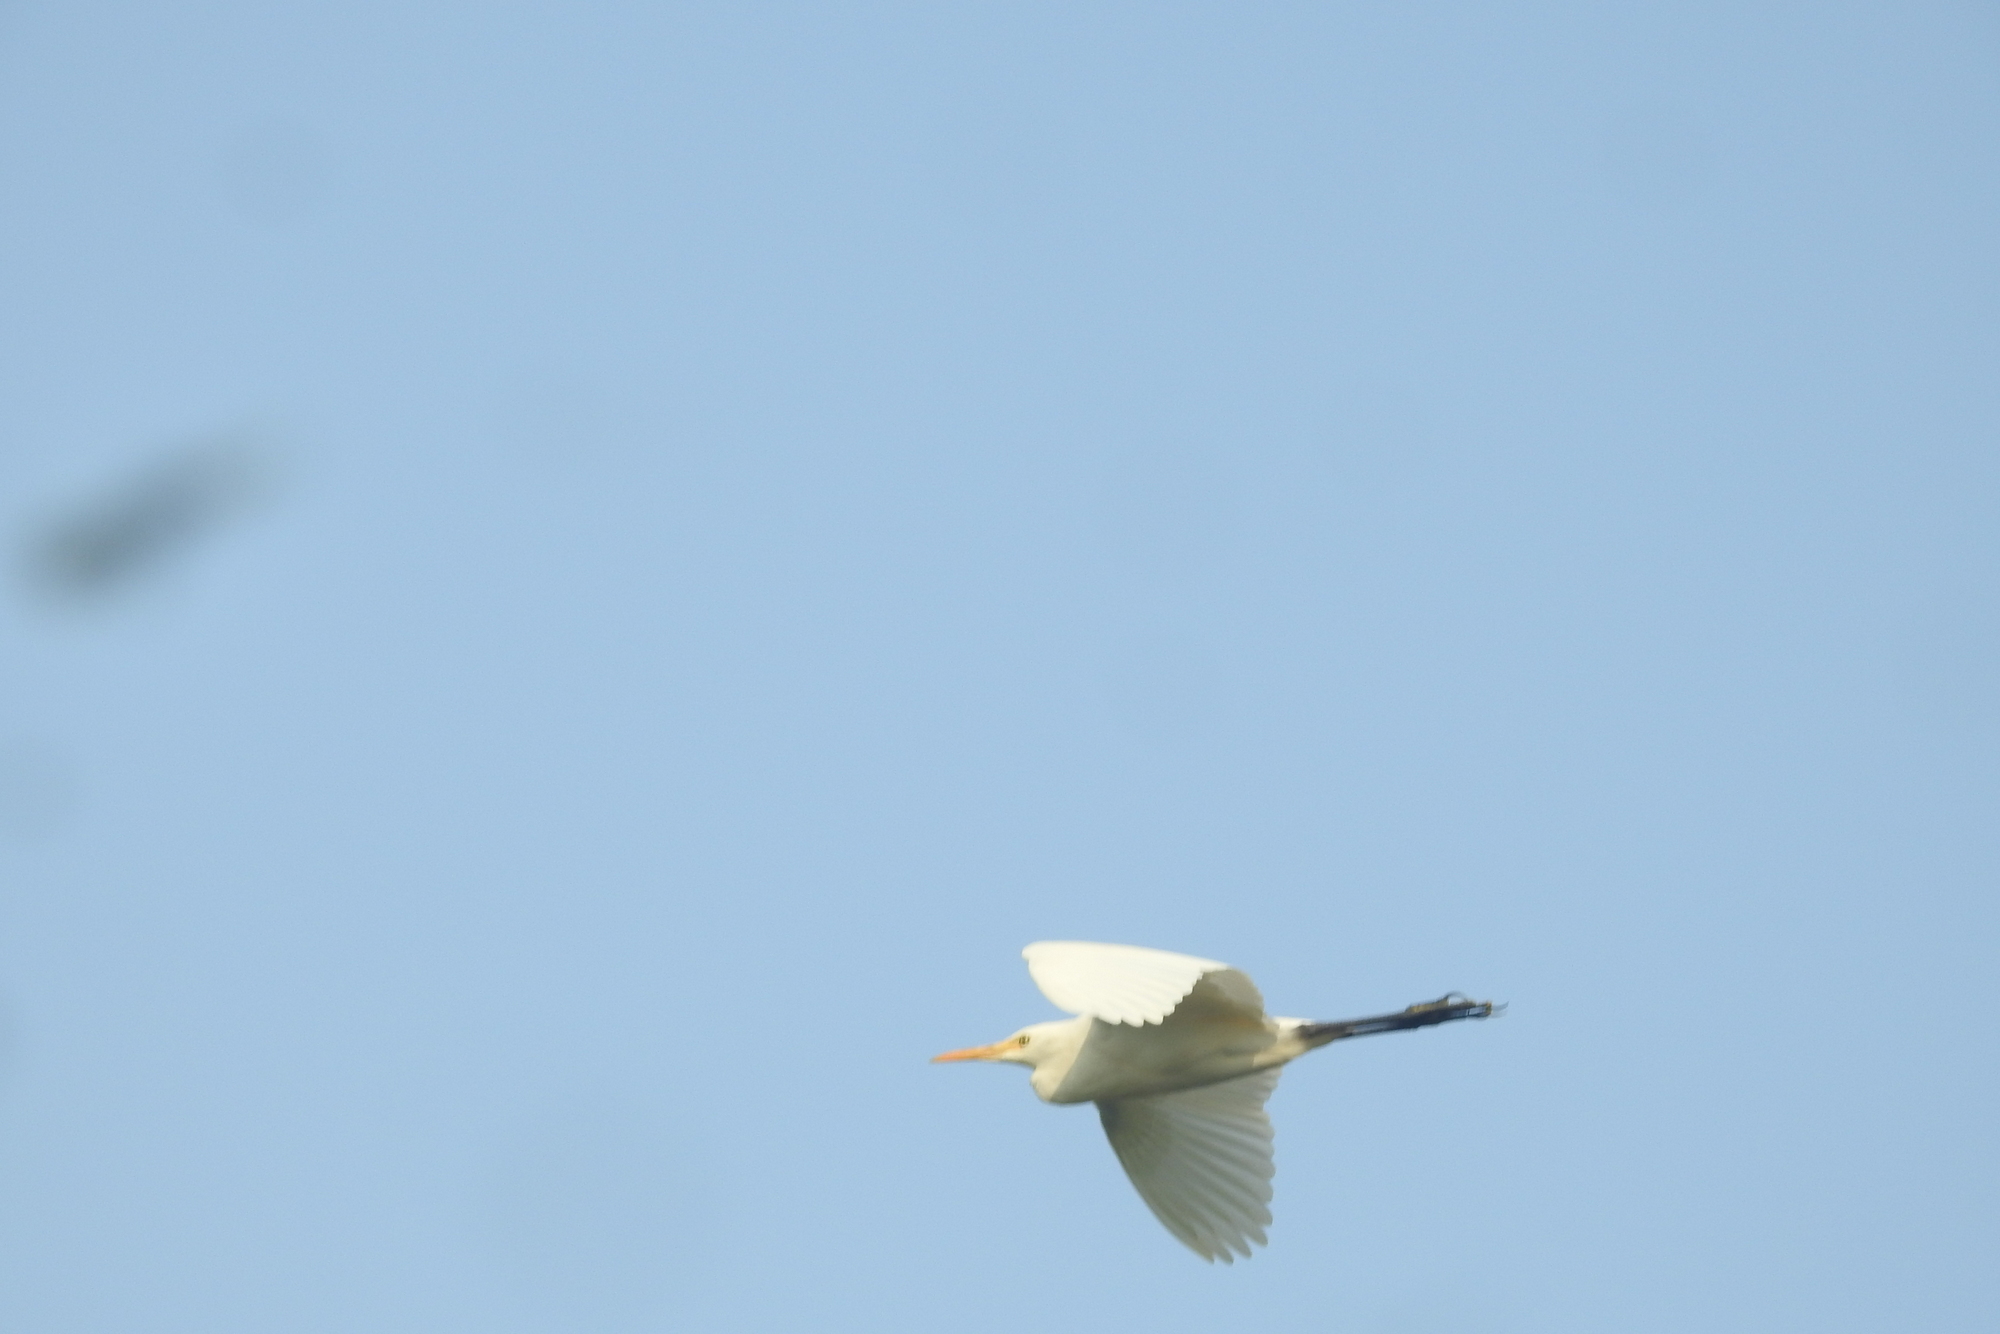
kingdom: Animalia
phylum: Chordata
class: Aves
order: Pelecaniformes
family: Ardeidae
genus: Bubulcus
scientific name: Bubulcus coromandus
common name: Eastern cattle egret
